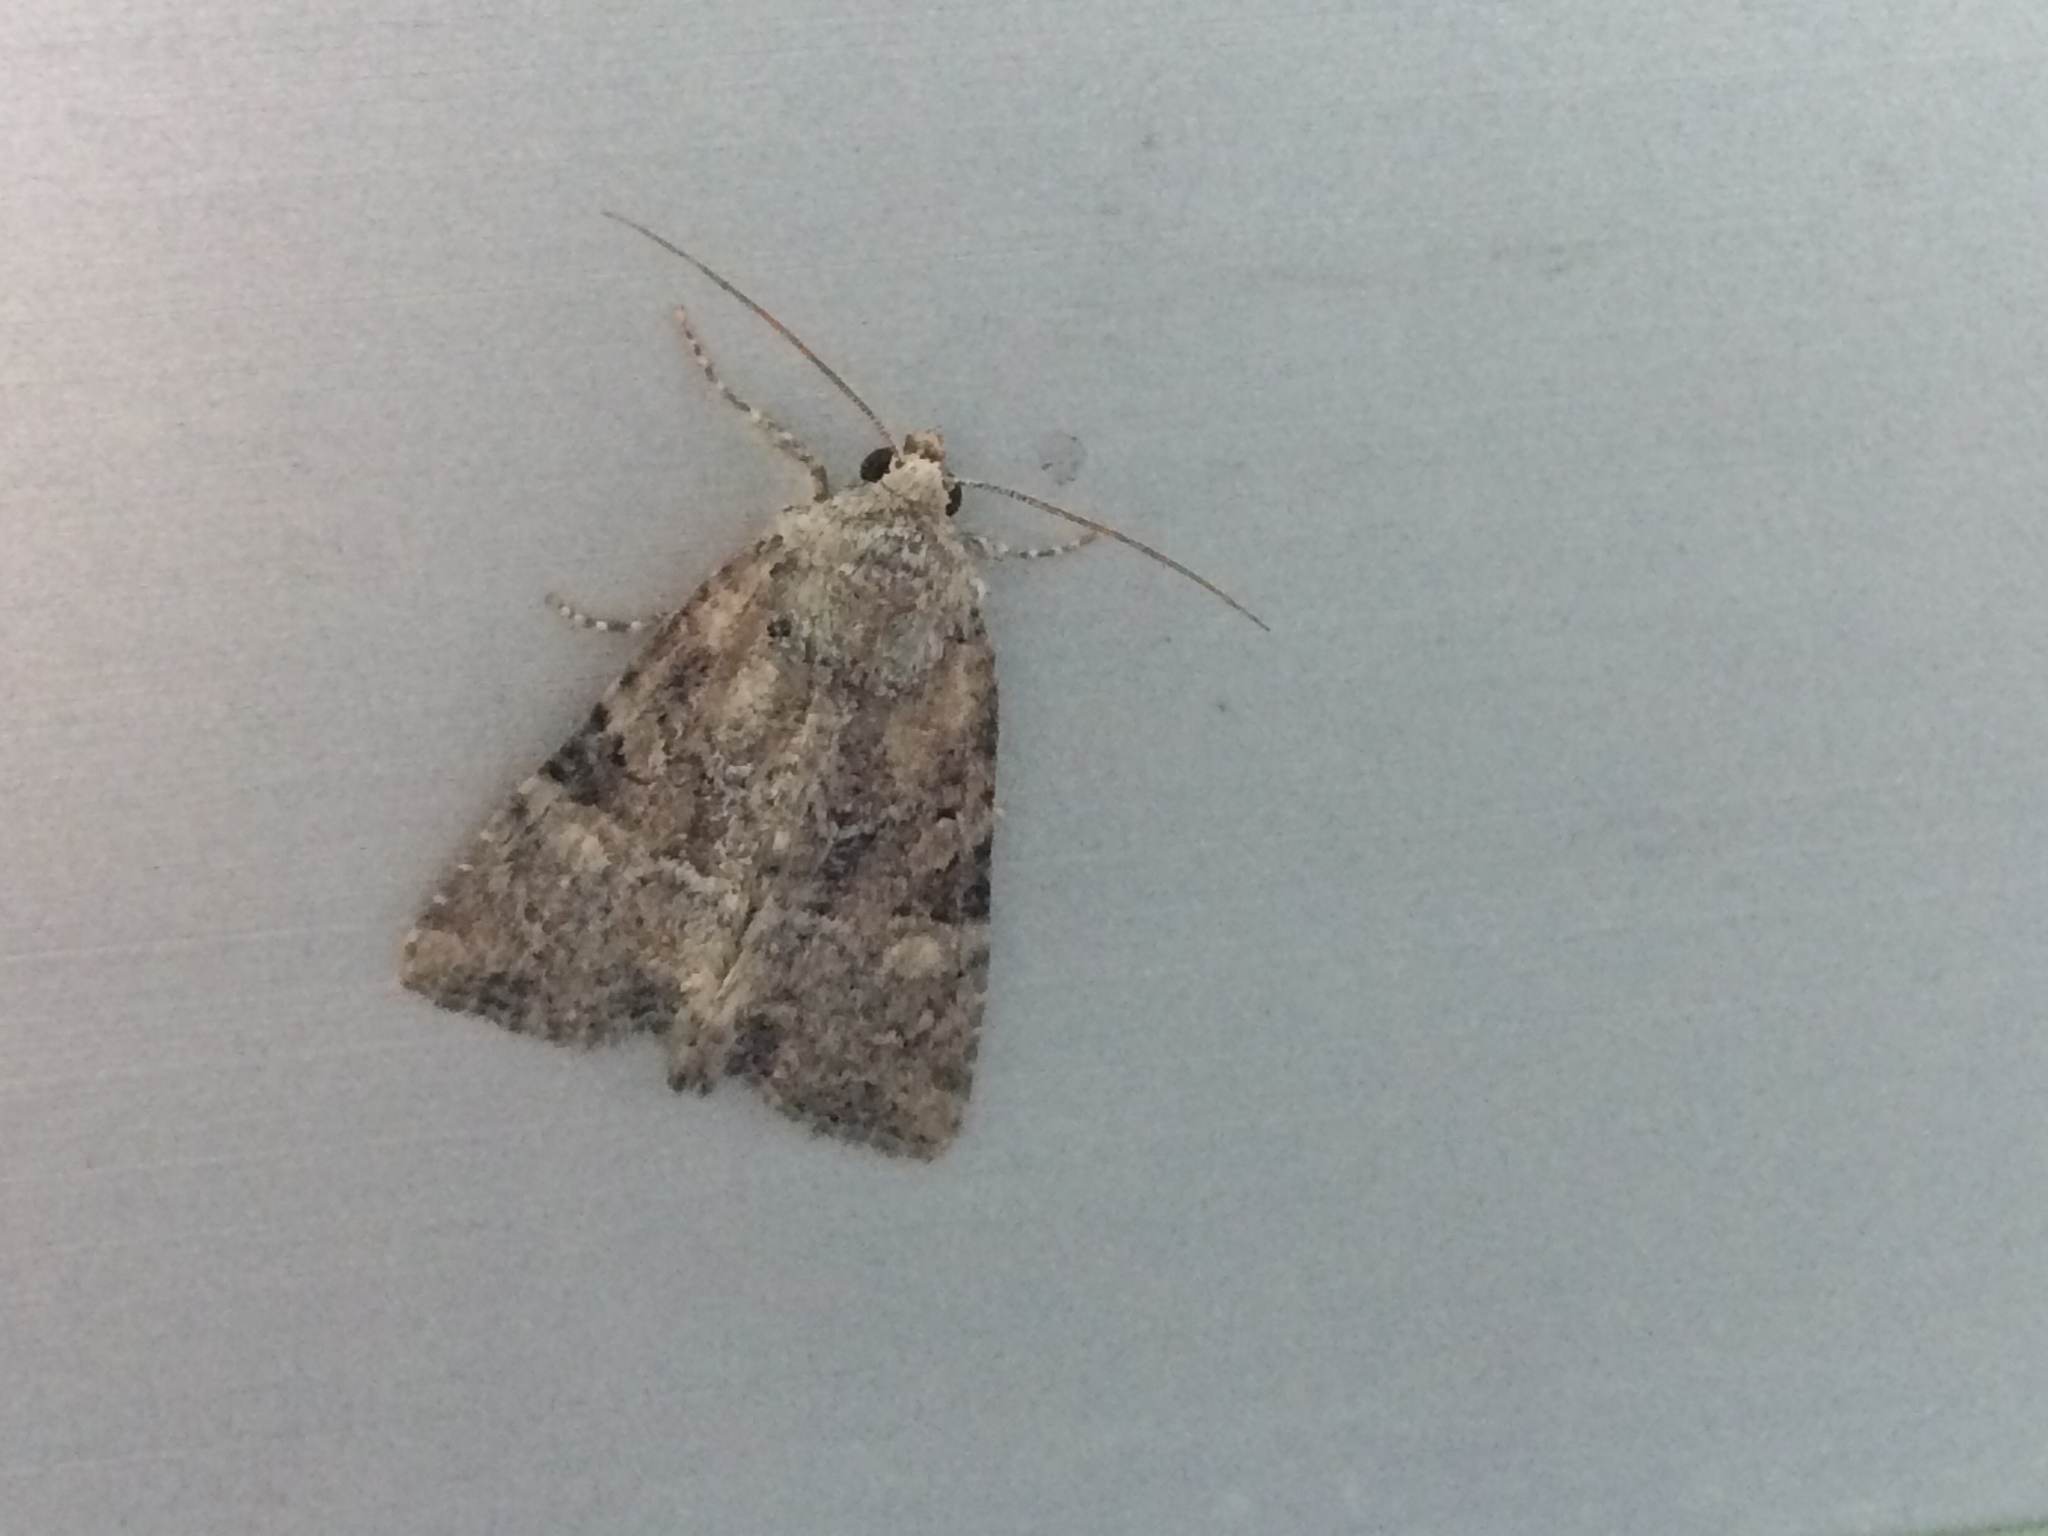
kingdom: Animalia
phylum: Arthropoda
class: Insecta
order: Lepidoptera
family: Noctuidae
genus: Mesoligia
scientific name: Mesoligia furuncula
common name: Cloaked minor
